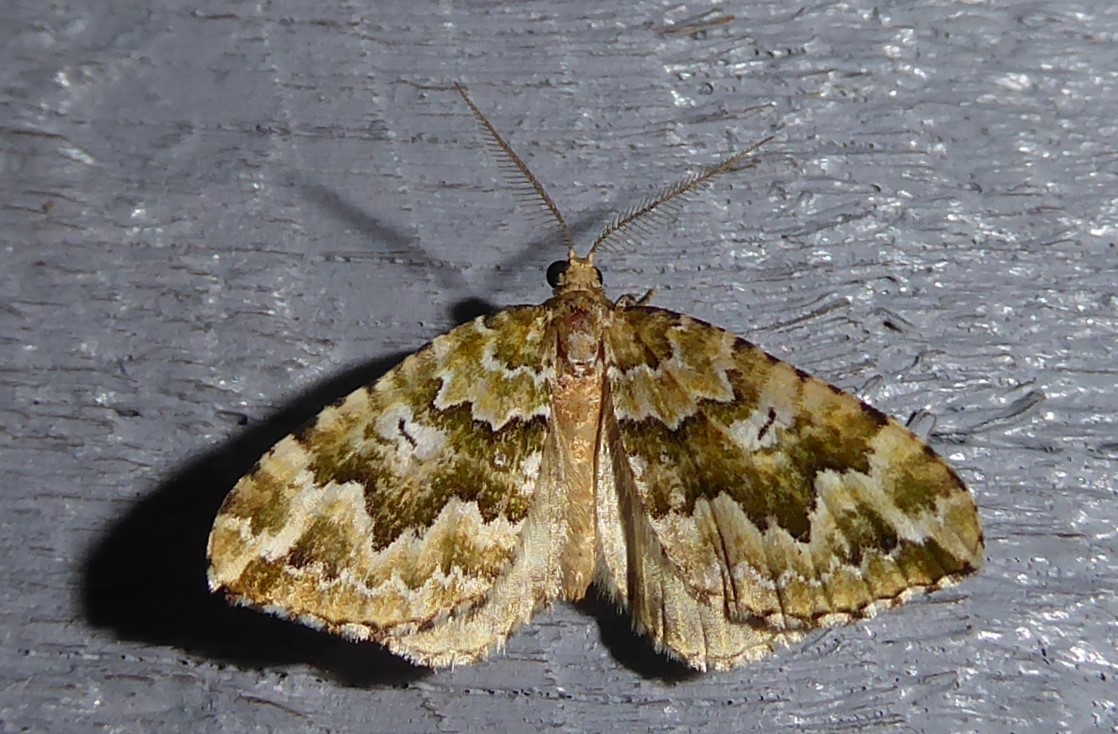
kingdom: Animalia
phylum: Arthropoda
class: Insecta
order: Lepidoptera
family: Geometridae
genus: Asaphodes
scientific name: Asaphodes beata
